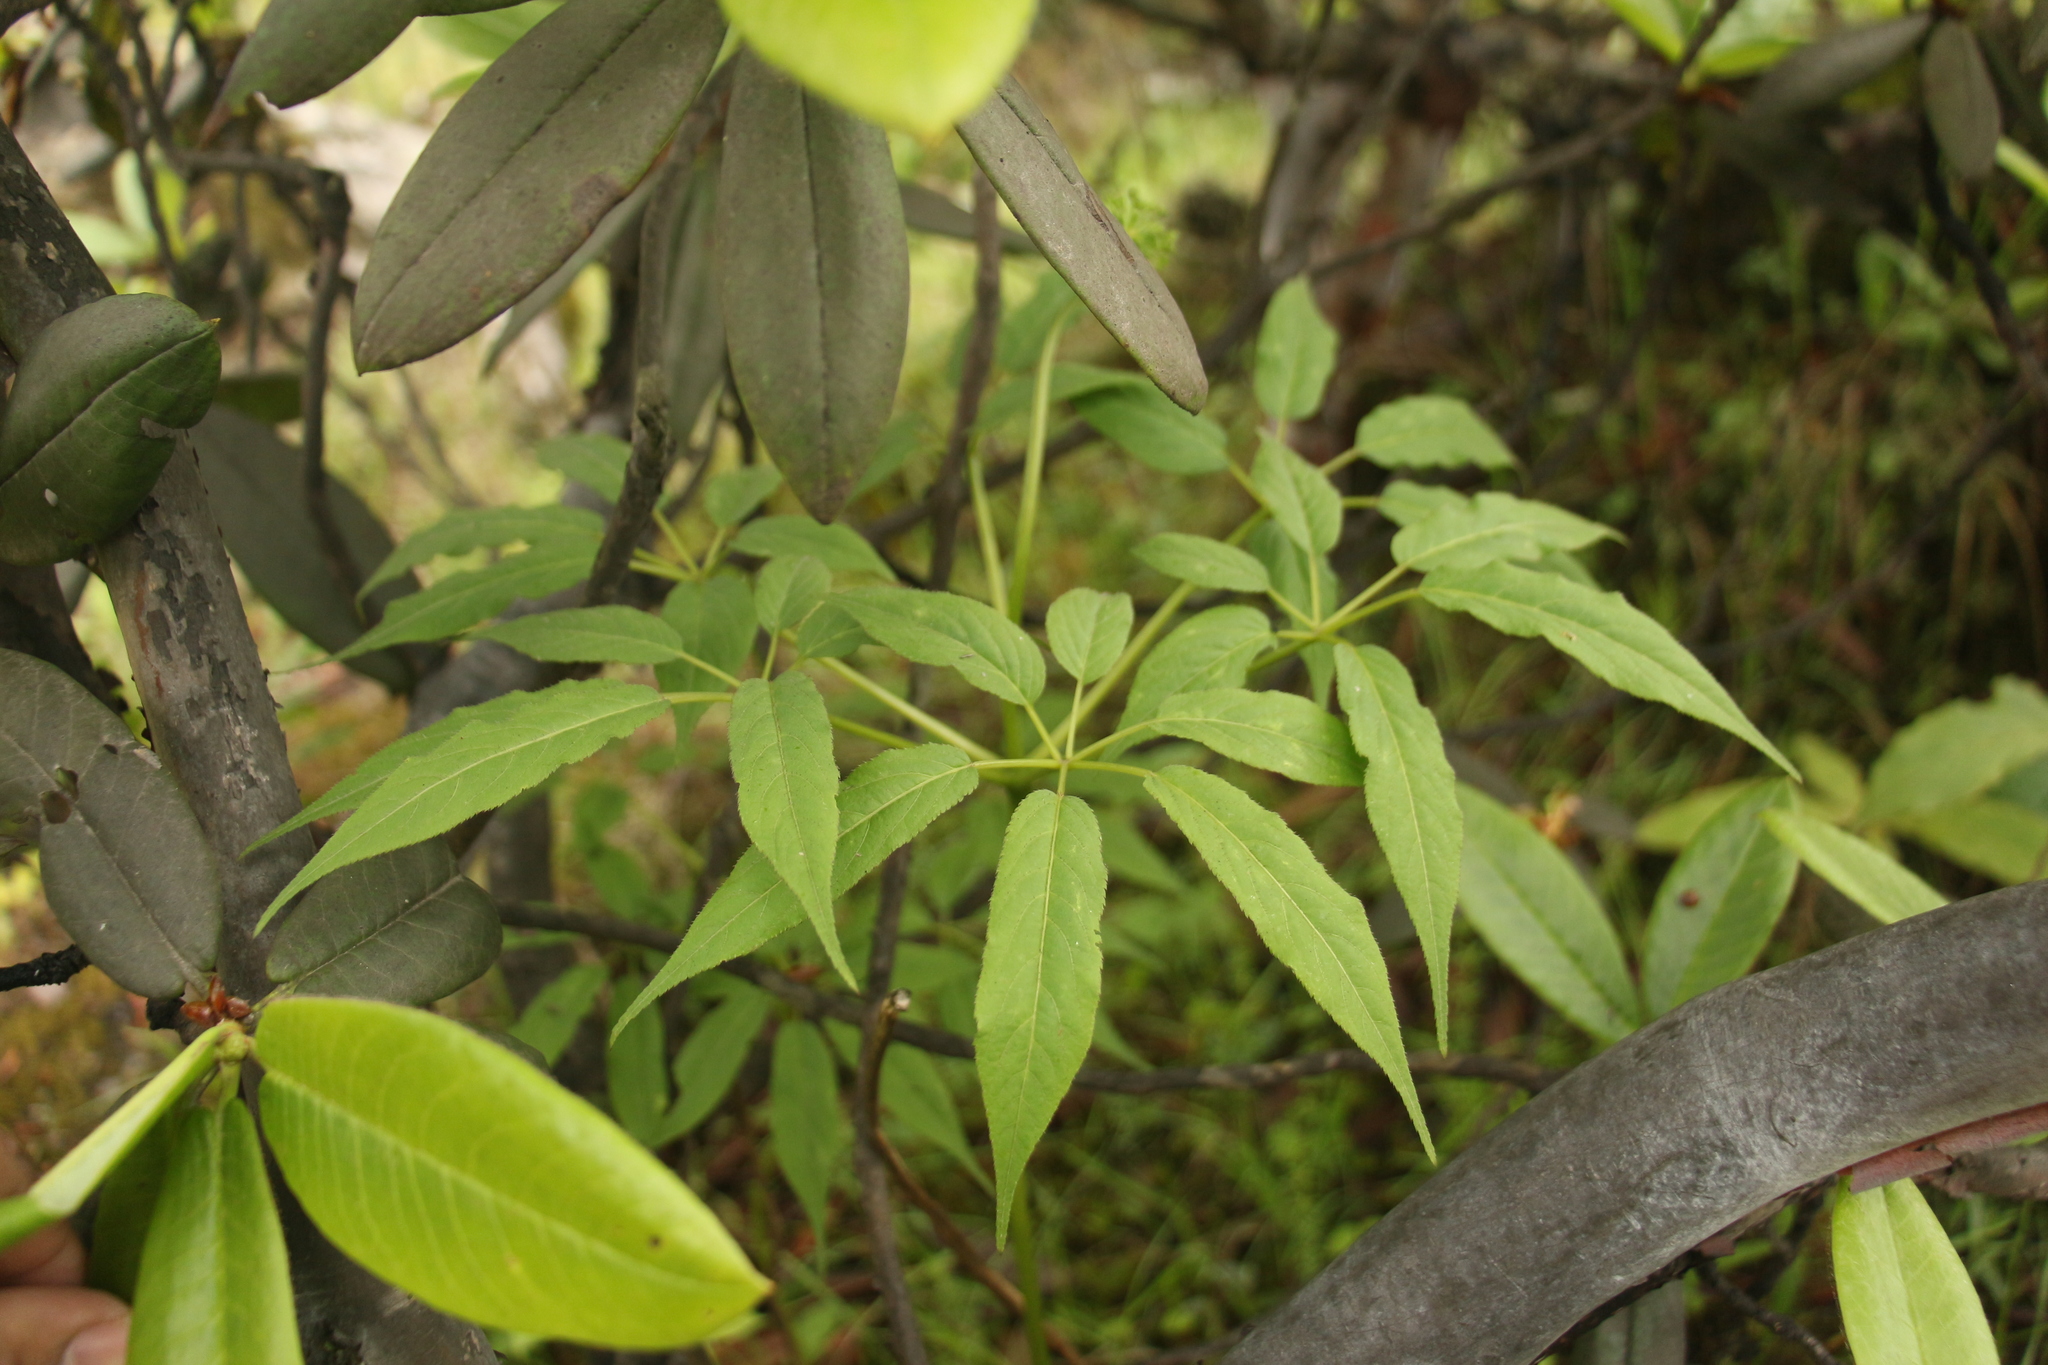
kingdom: Plantae
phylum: Tracheophyta
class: Magnoliopsida
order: Apiales
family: Araliaceae
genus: Panax
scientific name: Panax pseudoginseng
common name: Pseudoginseng
